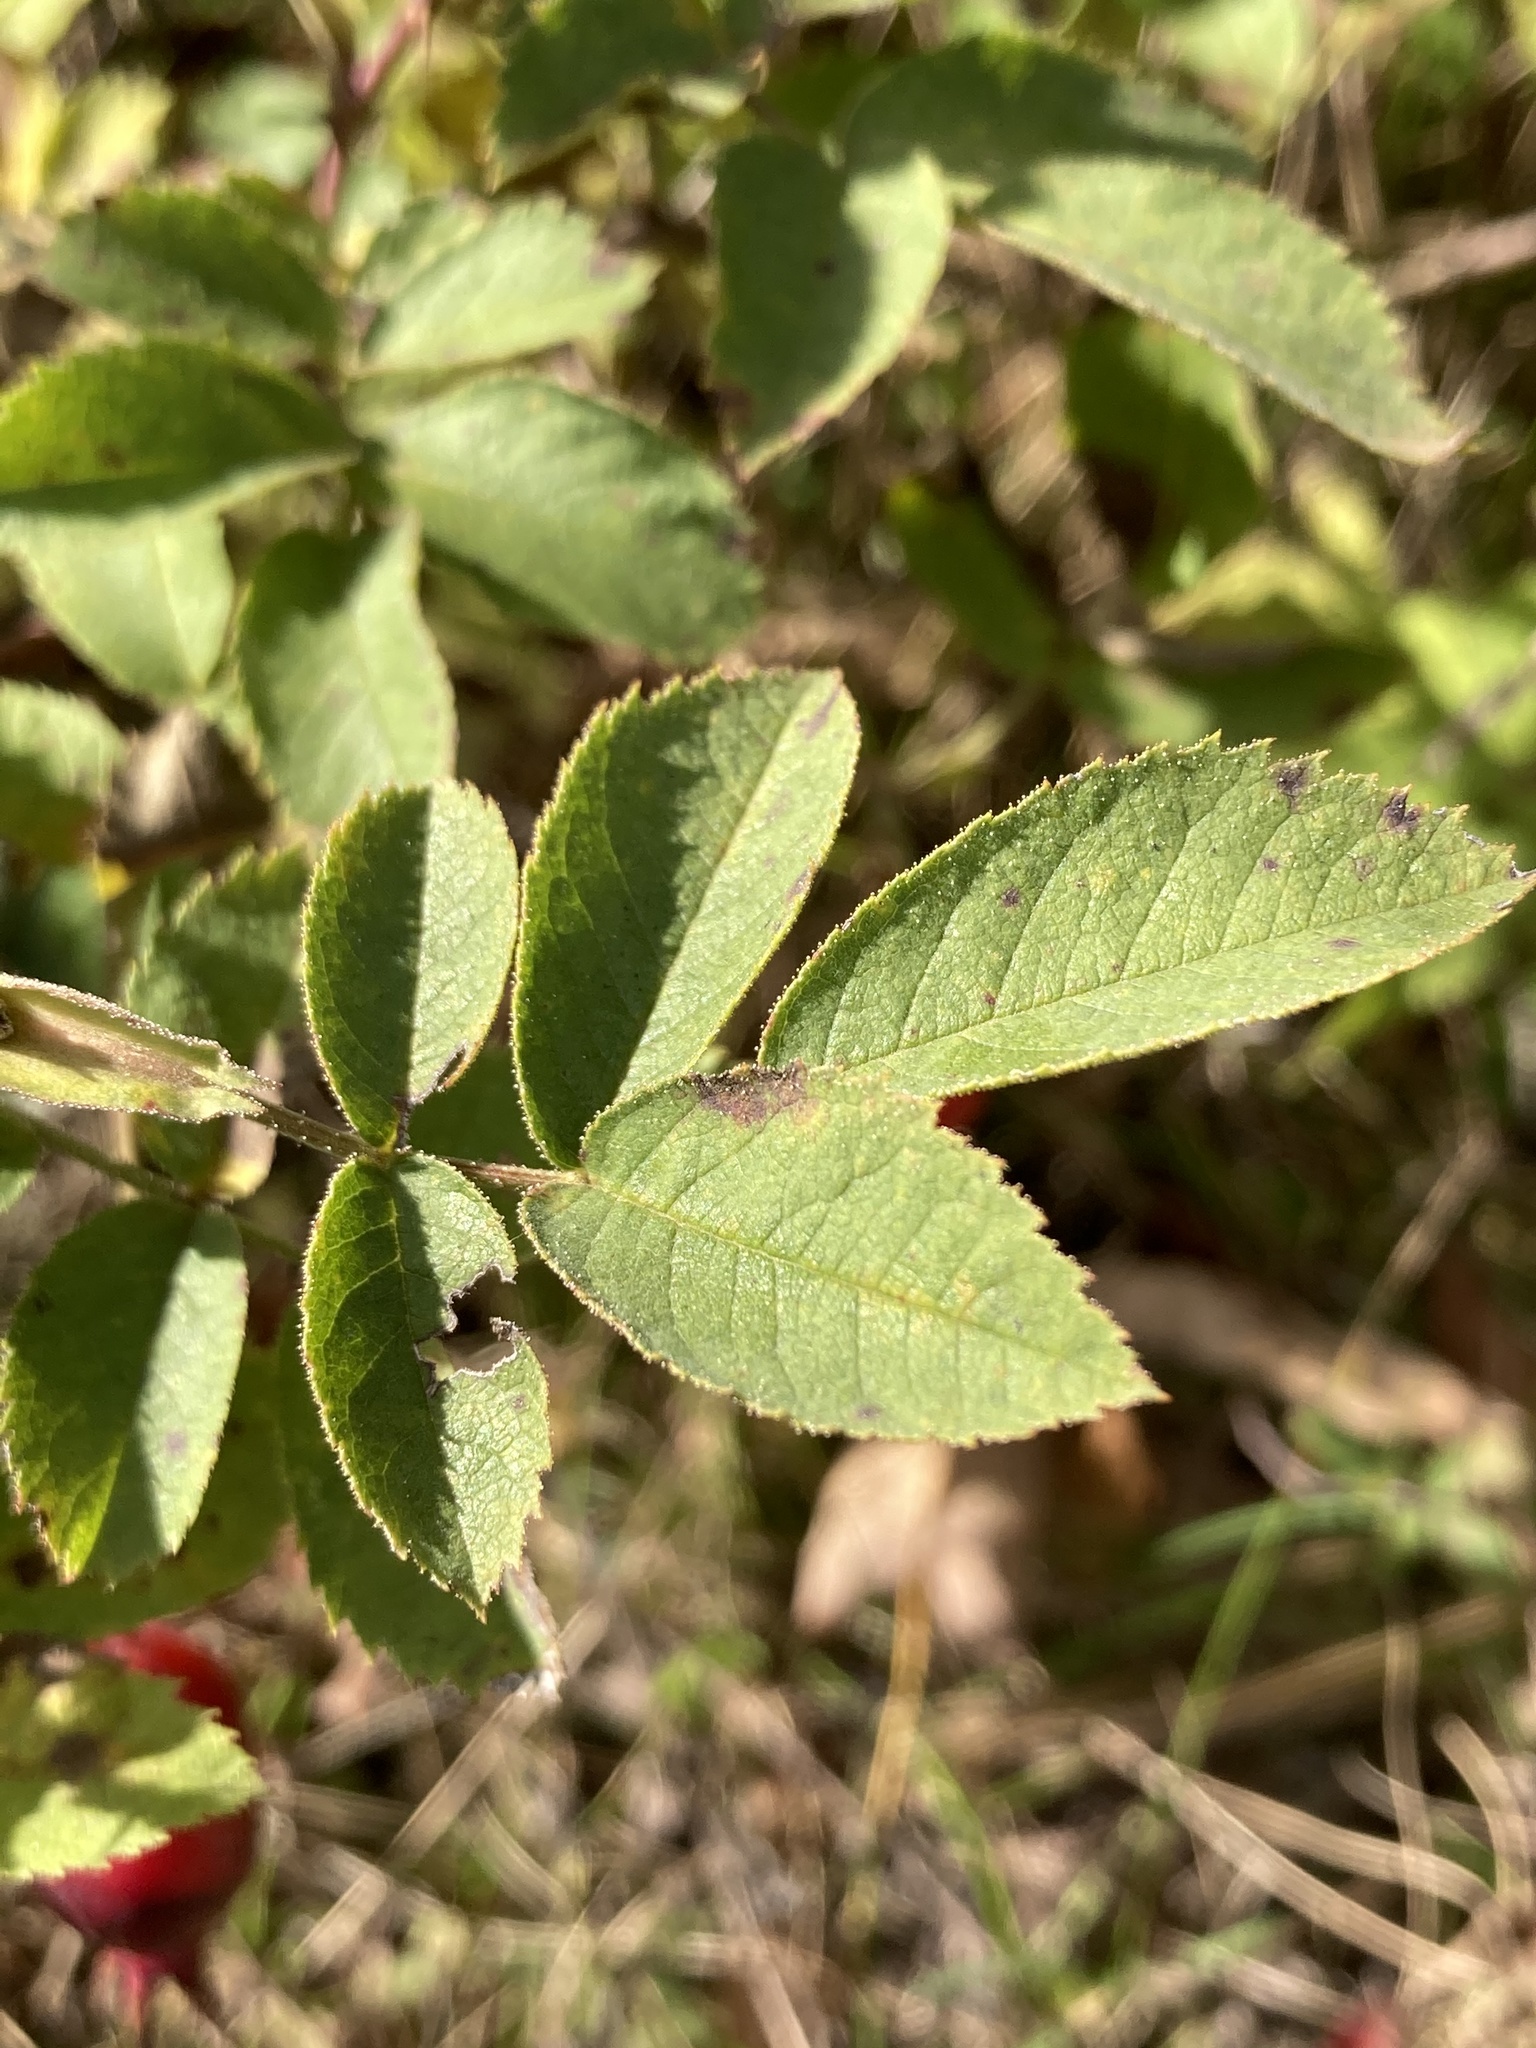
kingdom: Plantae
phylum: Tracheophyta
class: Magnoliopsida
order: Rosales
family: Rosaceae
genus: Rosa
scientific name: Rosa sherardii
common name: Sherard's downy rose
